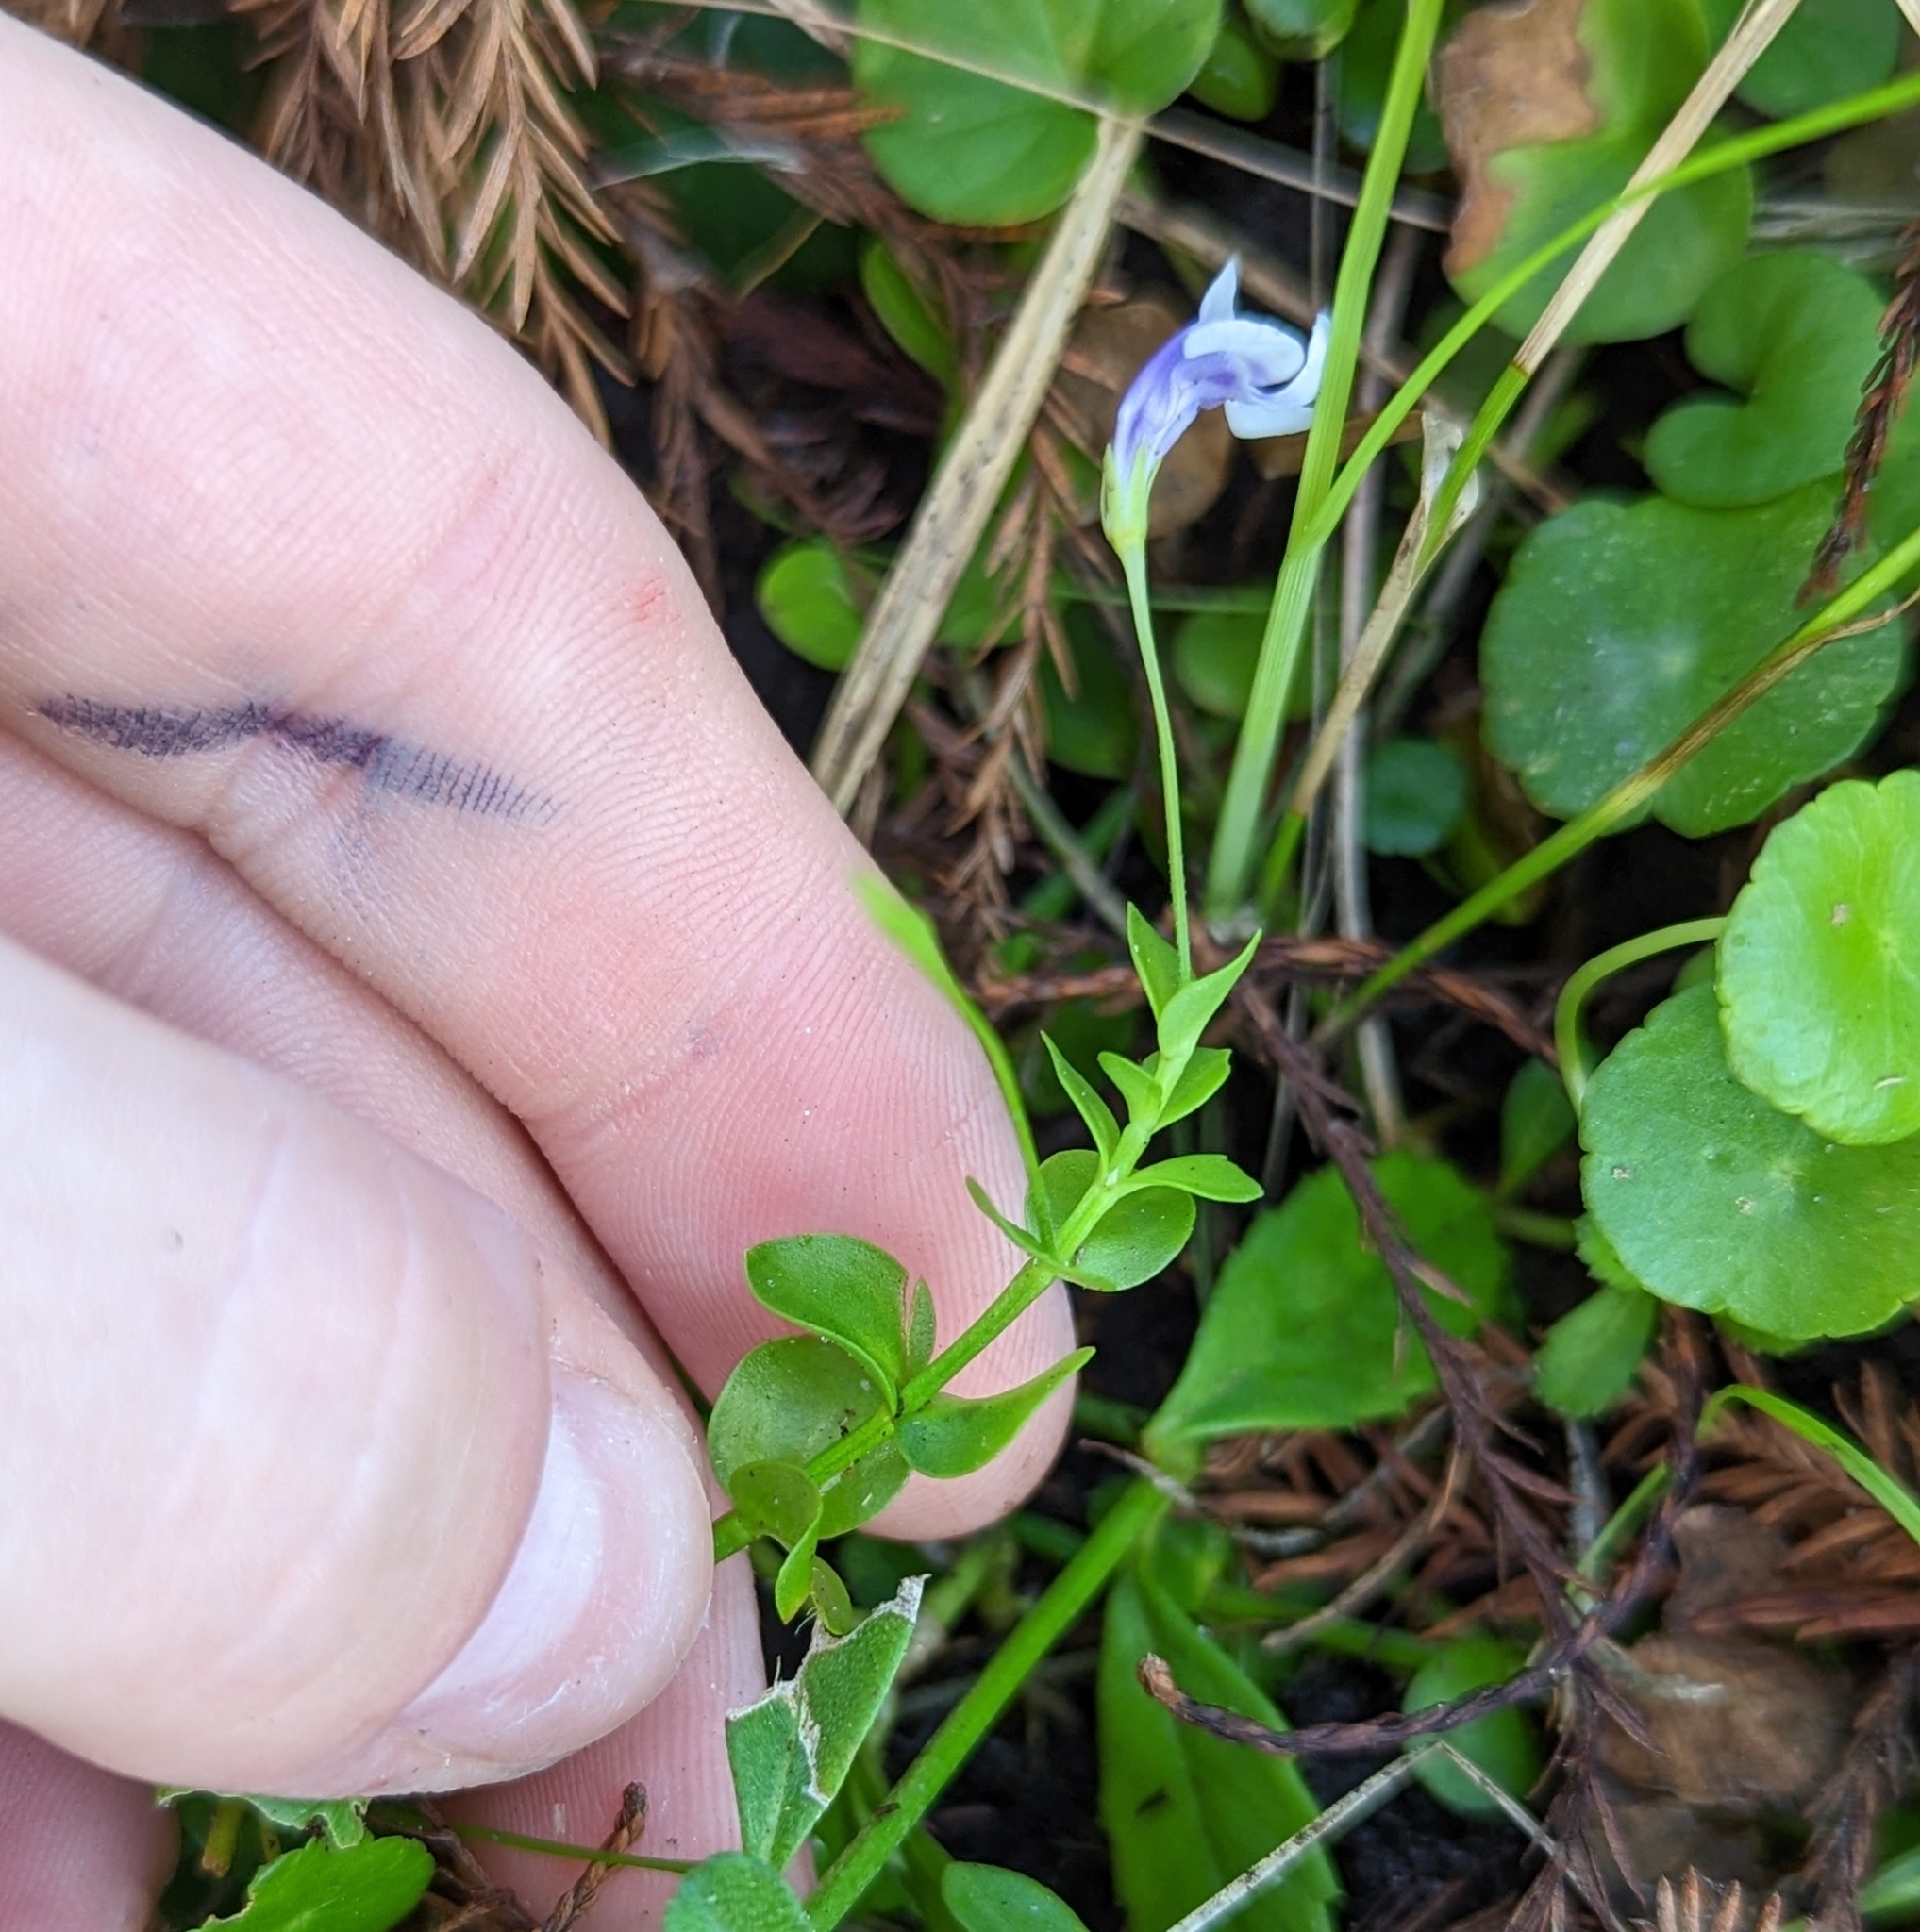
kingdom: Plantae
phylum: Tracheophyta
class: Magnoliopsida
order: Lamiales
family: Linderniaceae
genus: Lindernia
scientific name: Lindernia grandiflora
